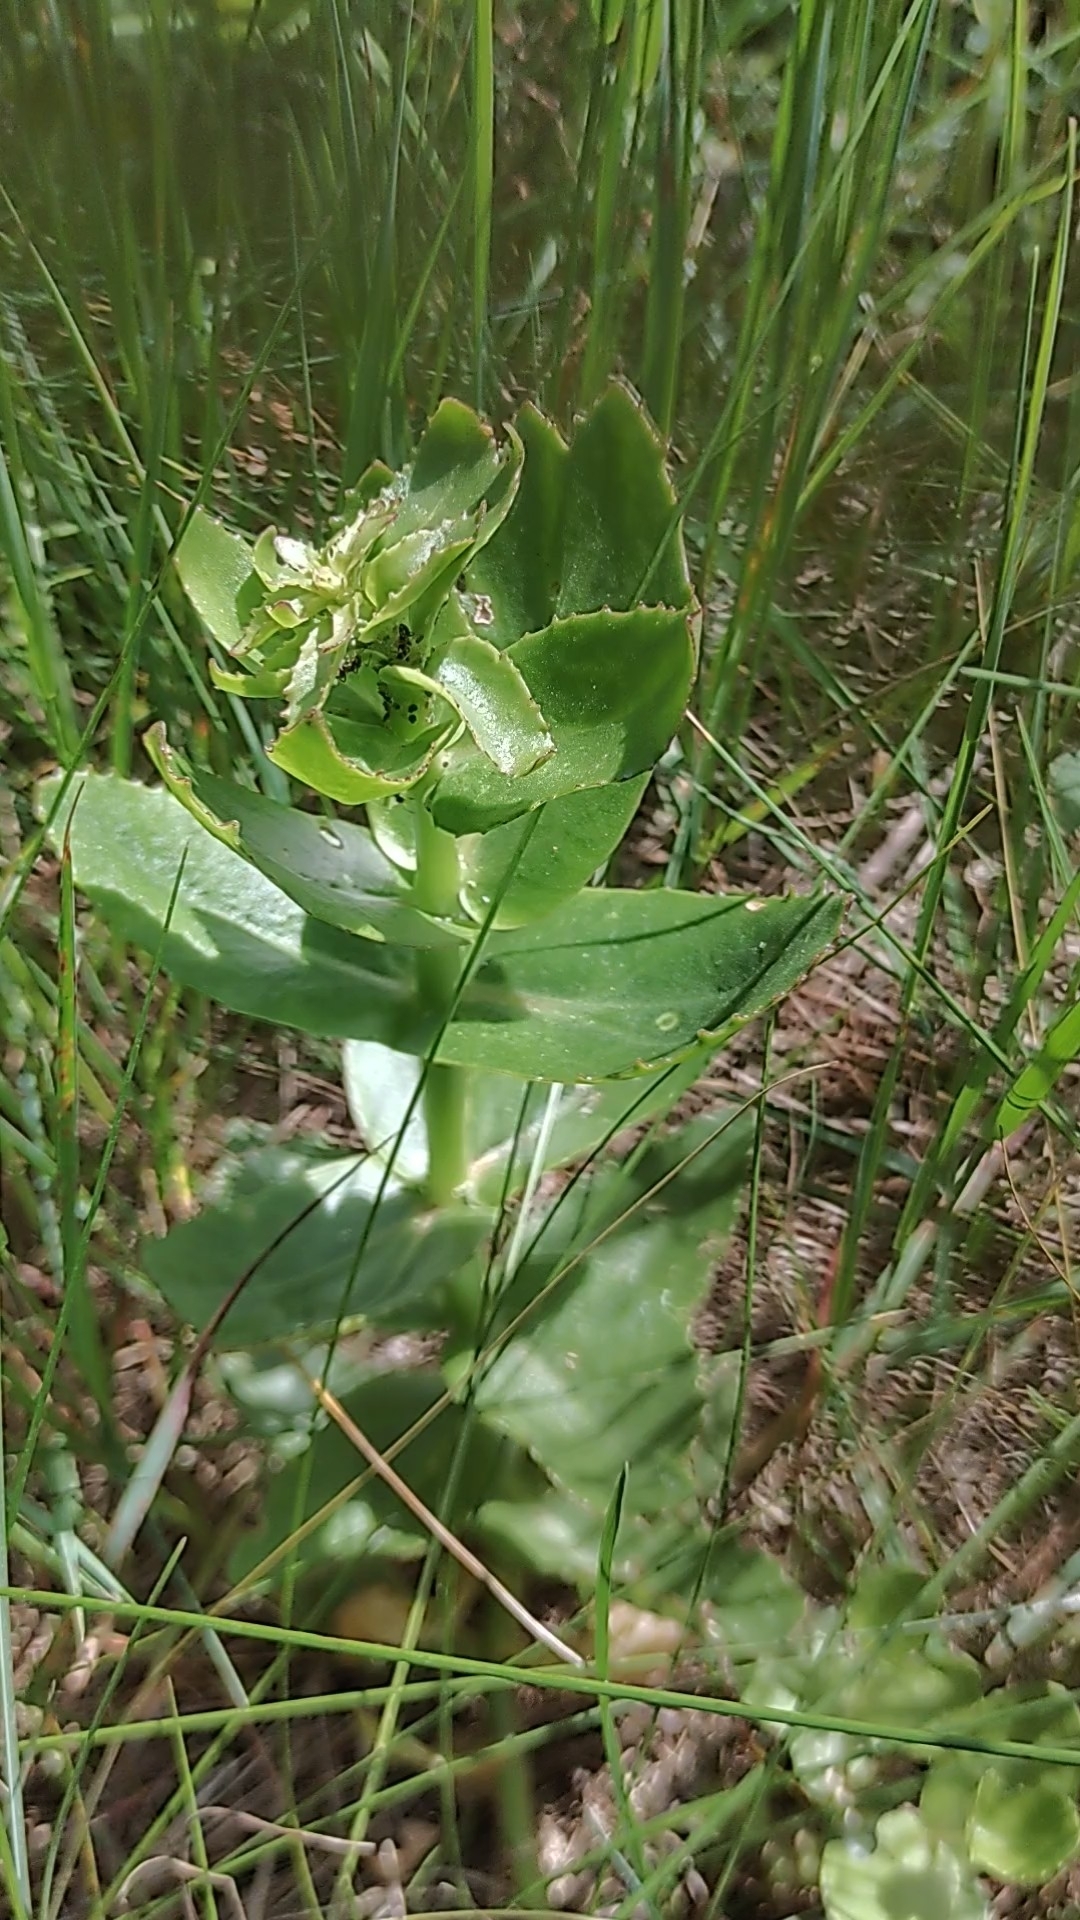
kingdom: Plantae
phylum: Tracheophyta
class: Magnoliopsida
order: Saxifragales
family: Crassulaceae
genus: Hylotelephium
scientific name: Hylotelephium maximum
